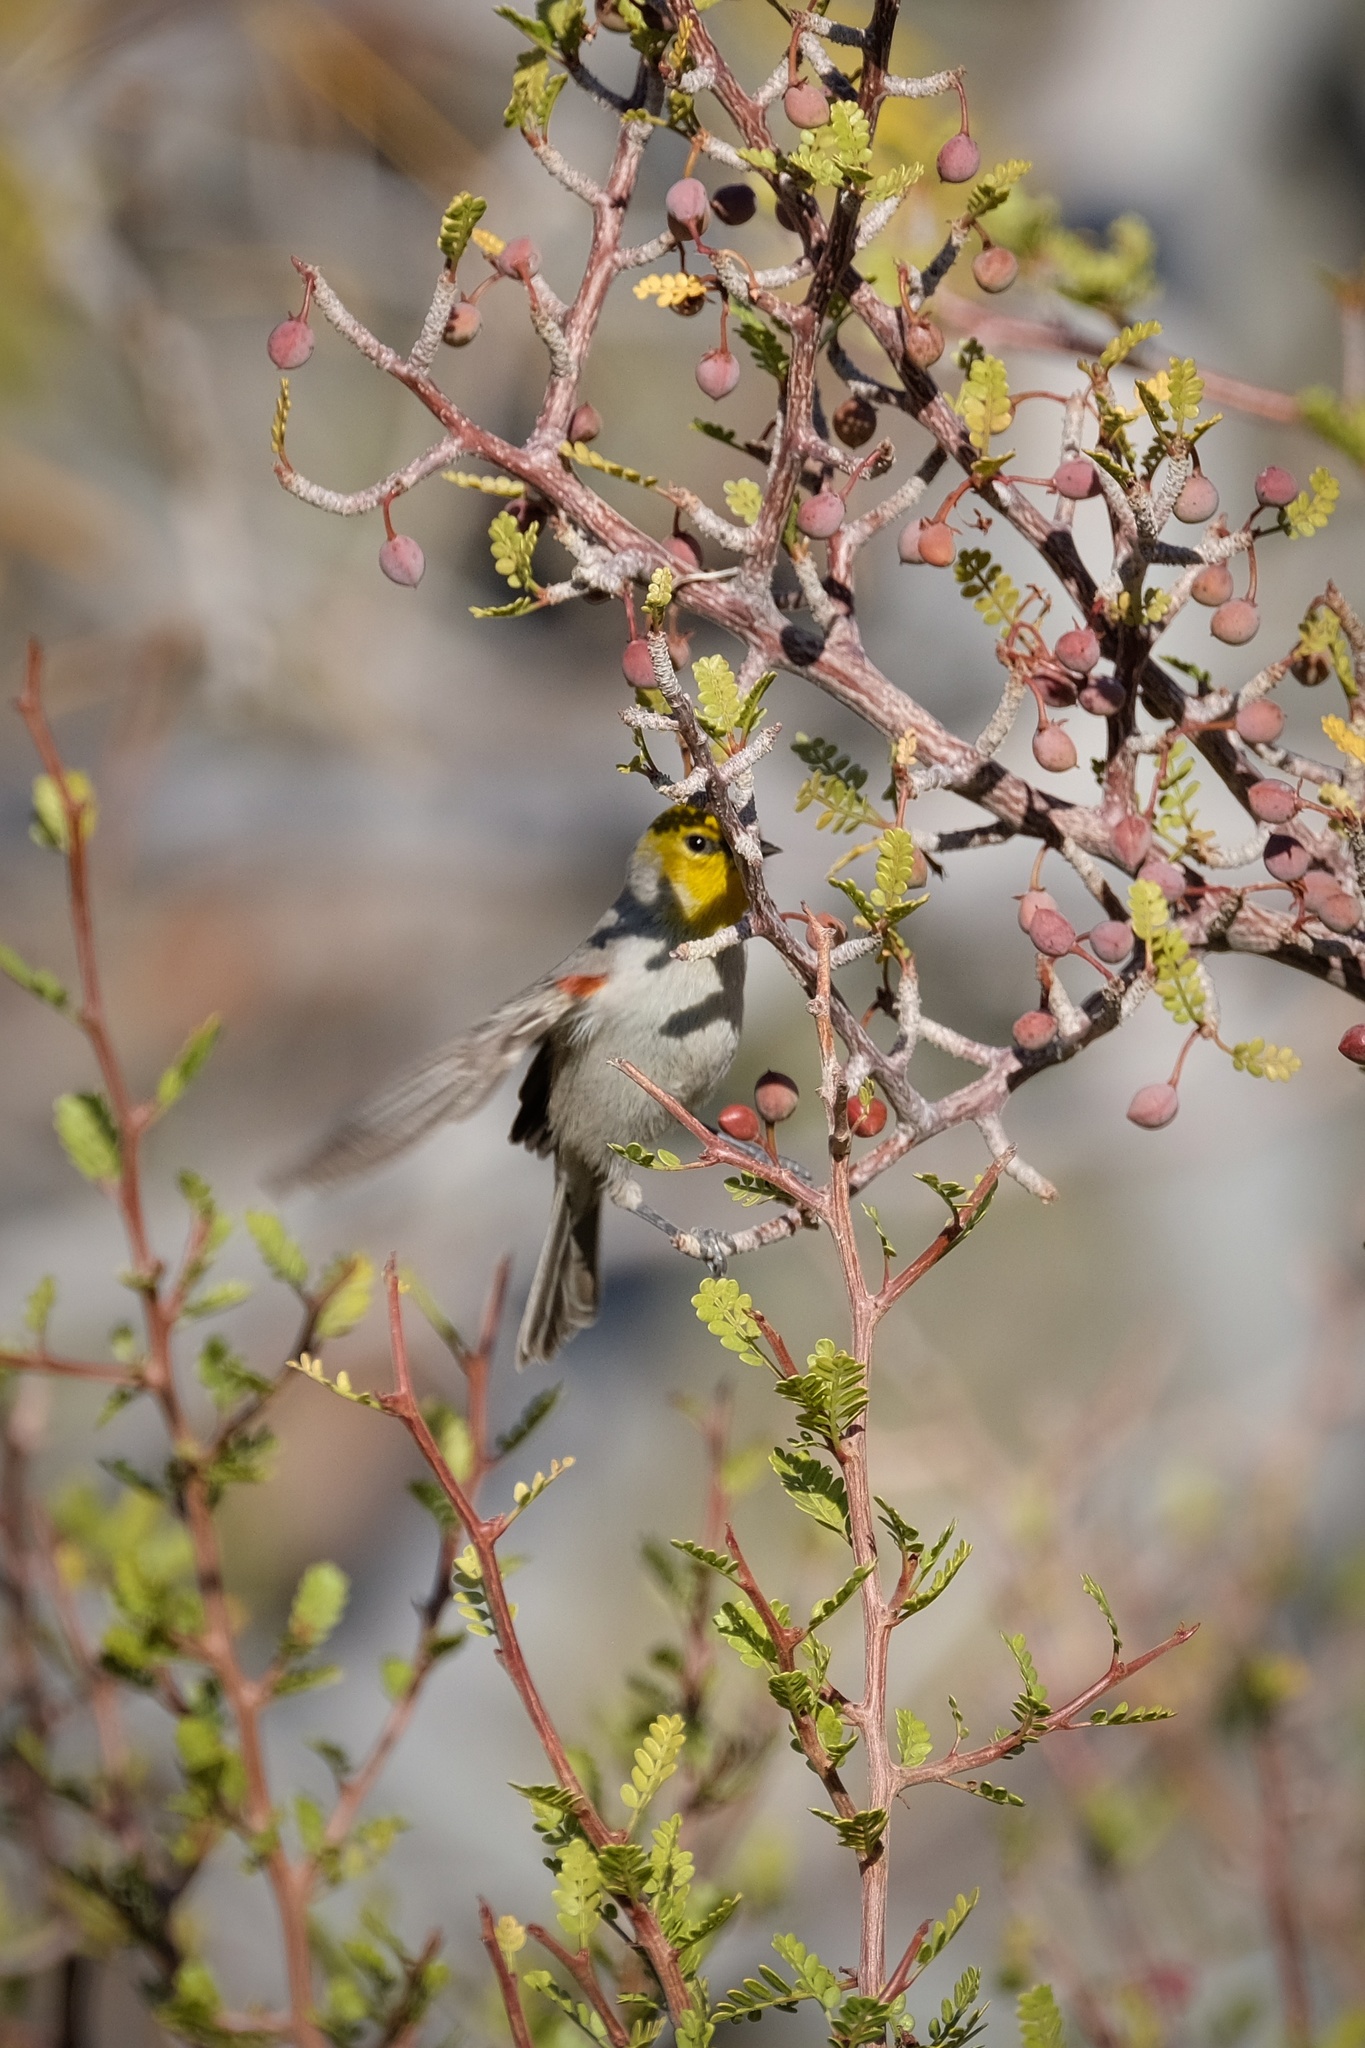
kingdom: Animalia
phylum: Chordata
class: Aves
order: Passeriformes
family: Remizidae
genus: Auriparus
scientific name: Auriparus flaviceps
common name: Verdin
